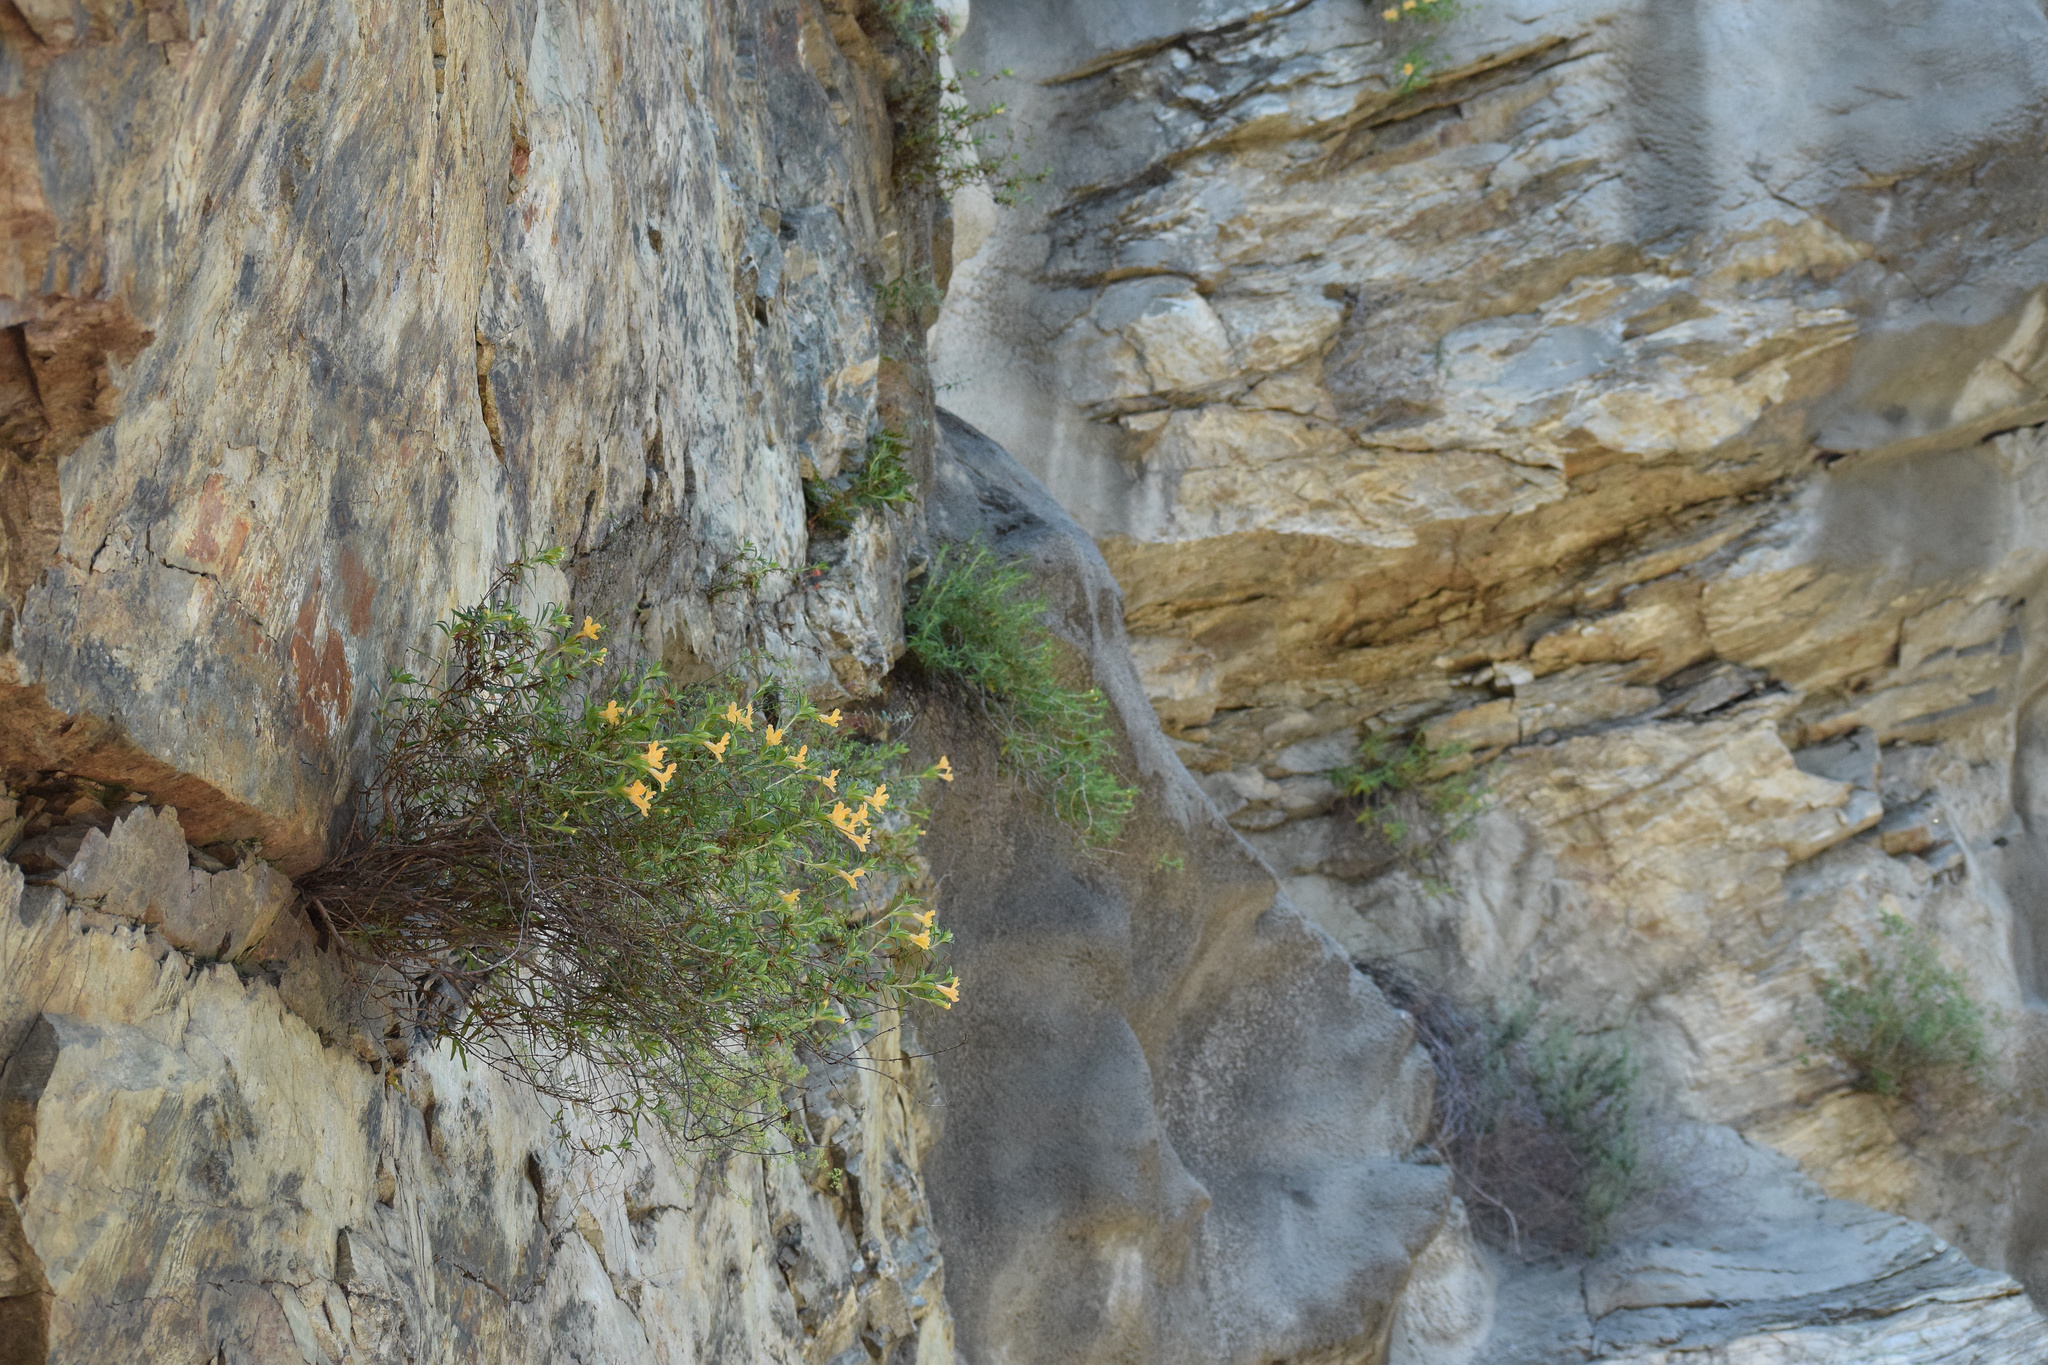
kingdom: Plantae
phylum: Tracheophyta
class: Magnoliopsida
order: Lamiales
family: Phrymaceae
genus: Diplacus
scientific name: Diplacus longiflorus
